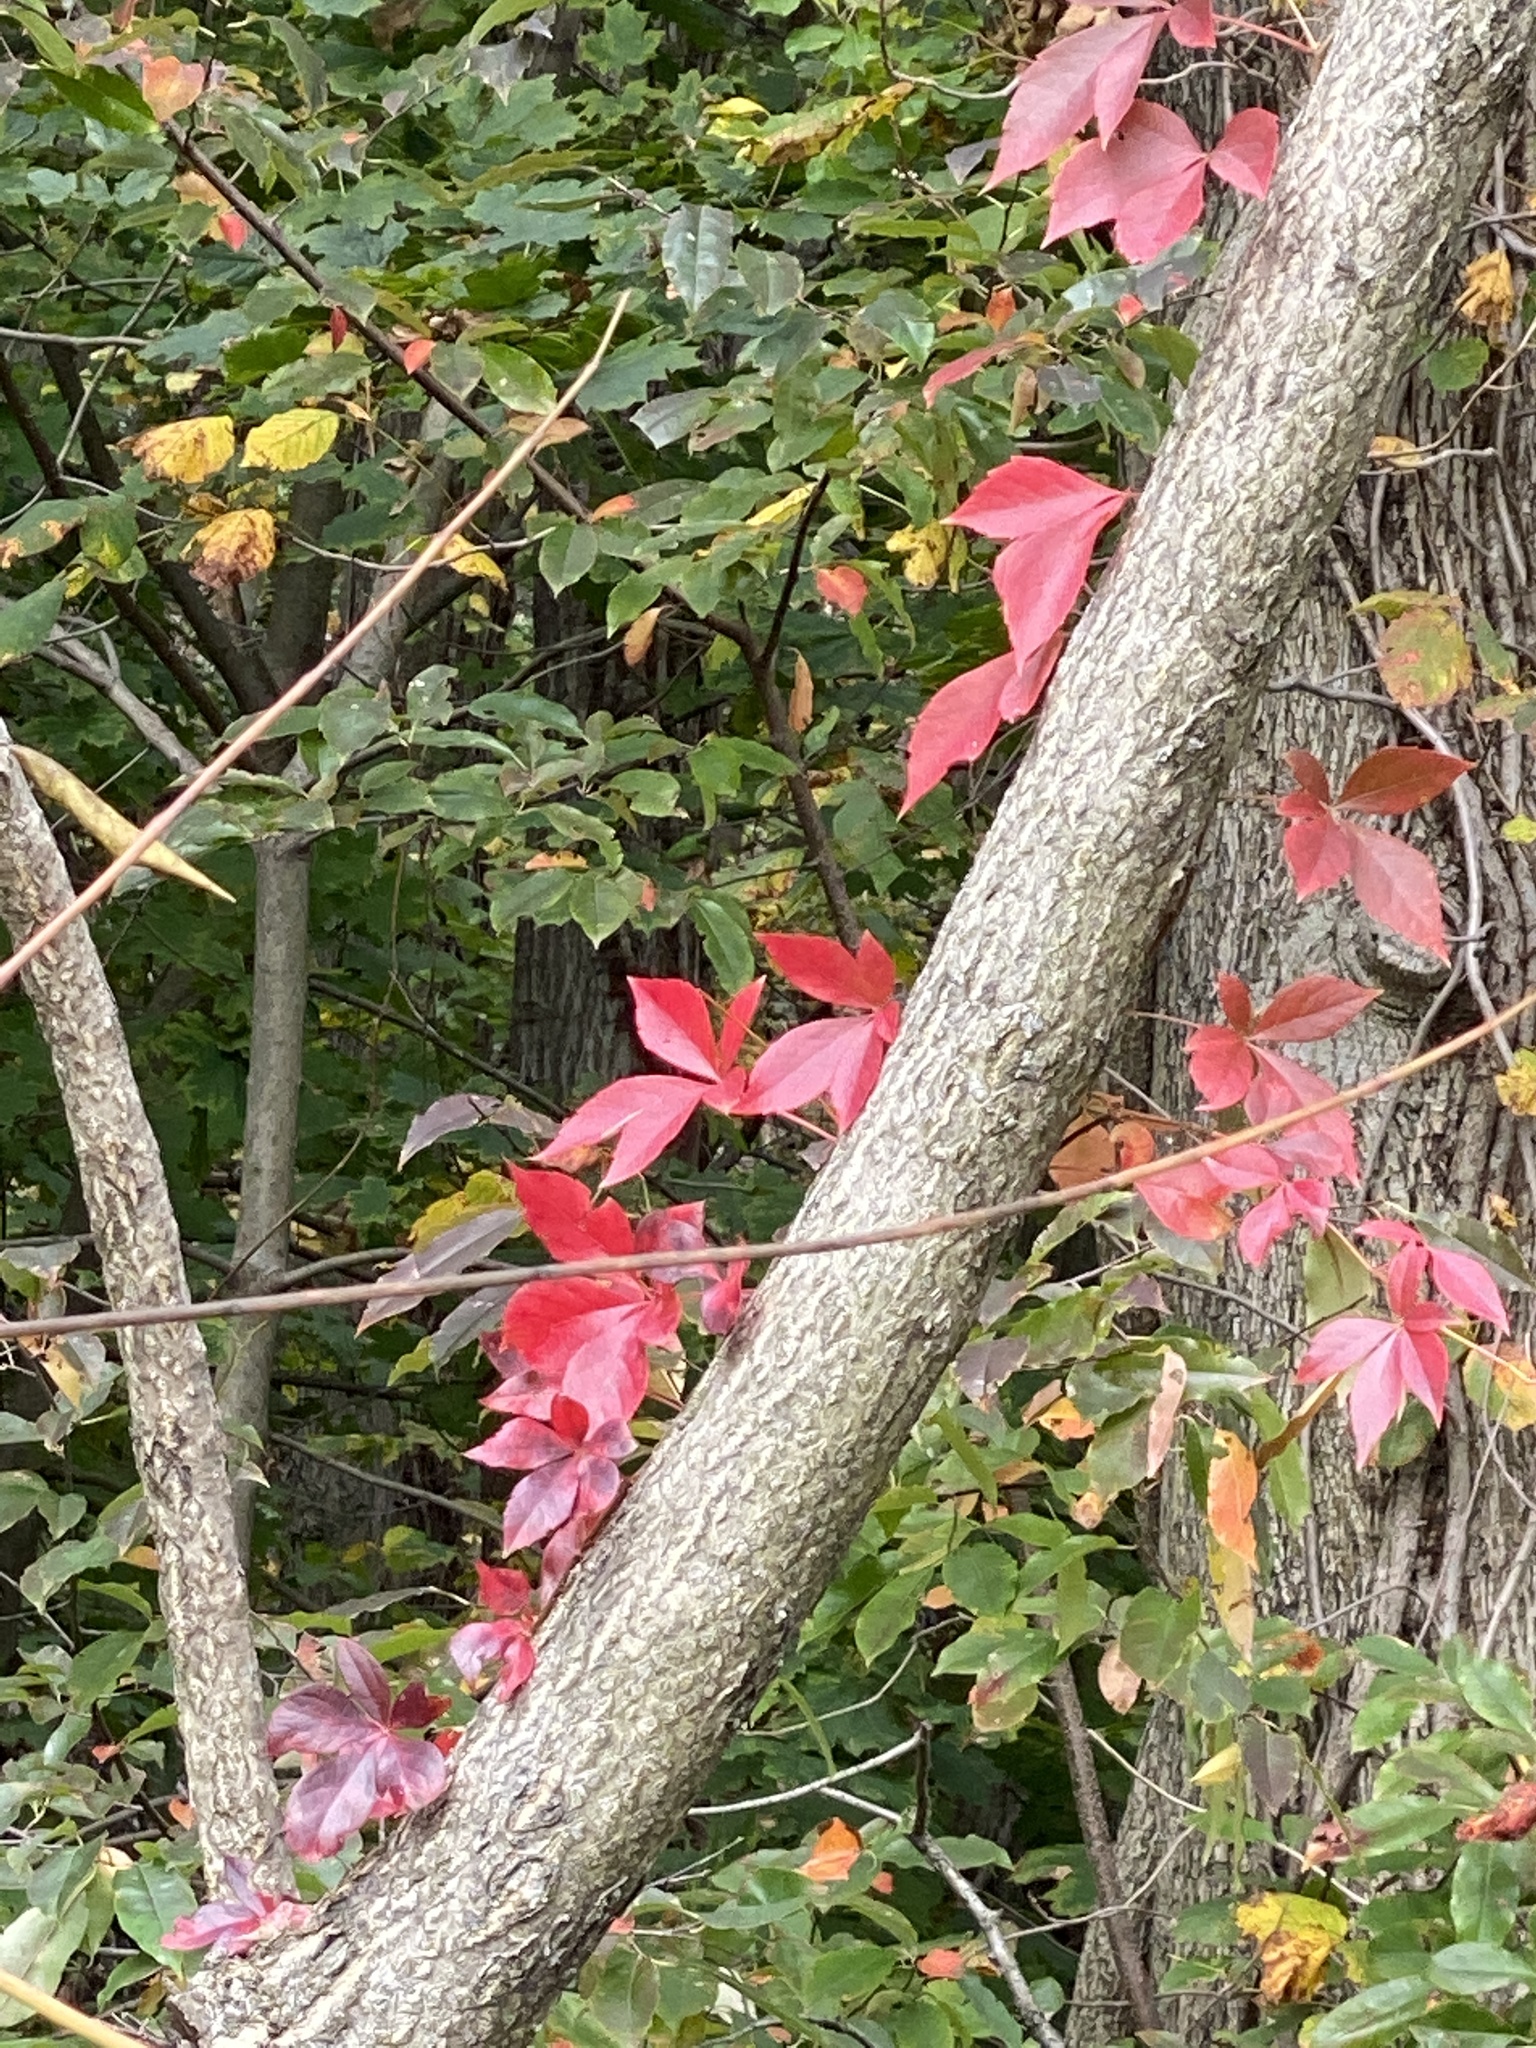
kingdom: Plantae
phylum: Tracheophyta
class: Magnoliopsida
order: Vitales
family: Vitaceae
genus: Parthenocissus
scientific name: Parthenocissus quinquefolia
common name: Virginia-creeper
